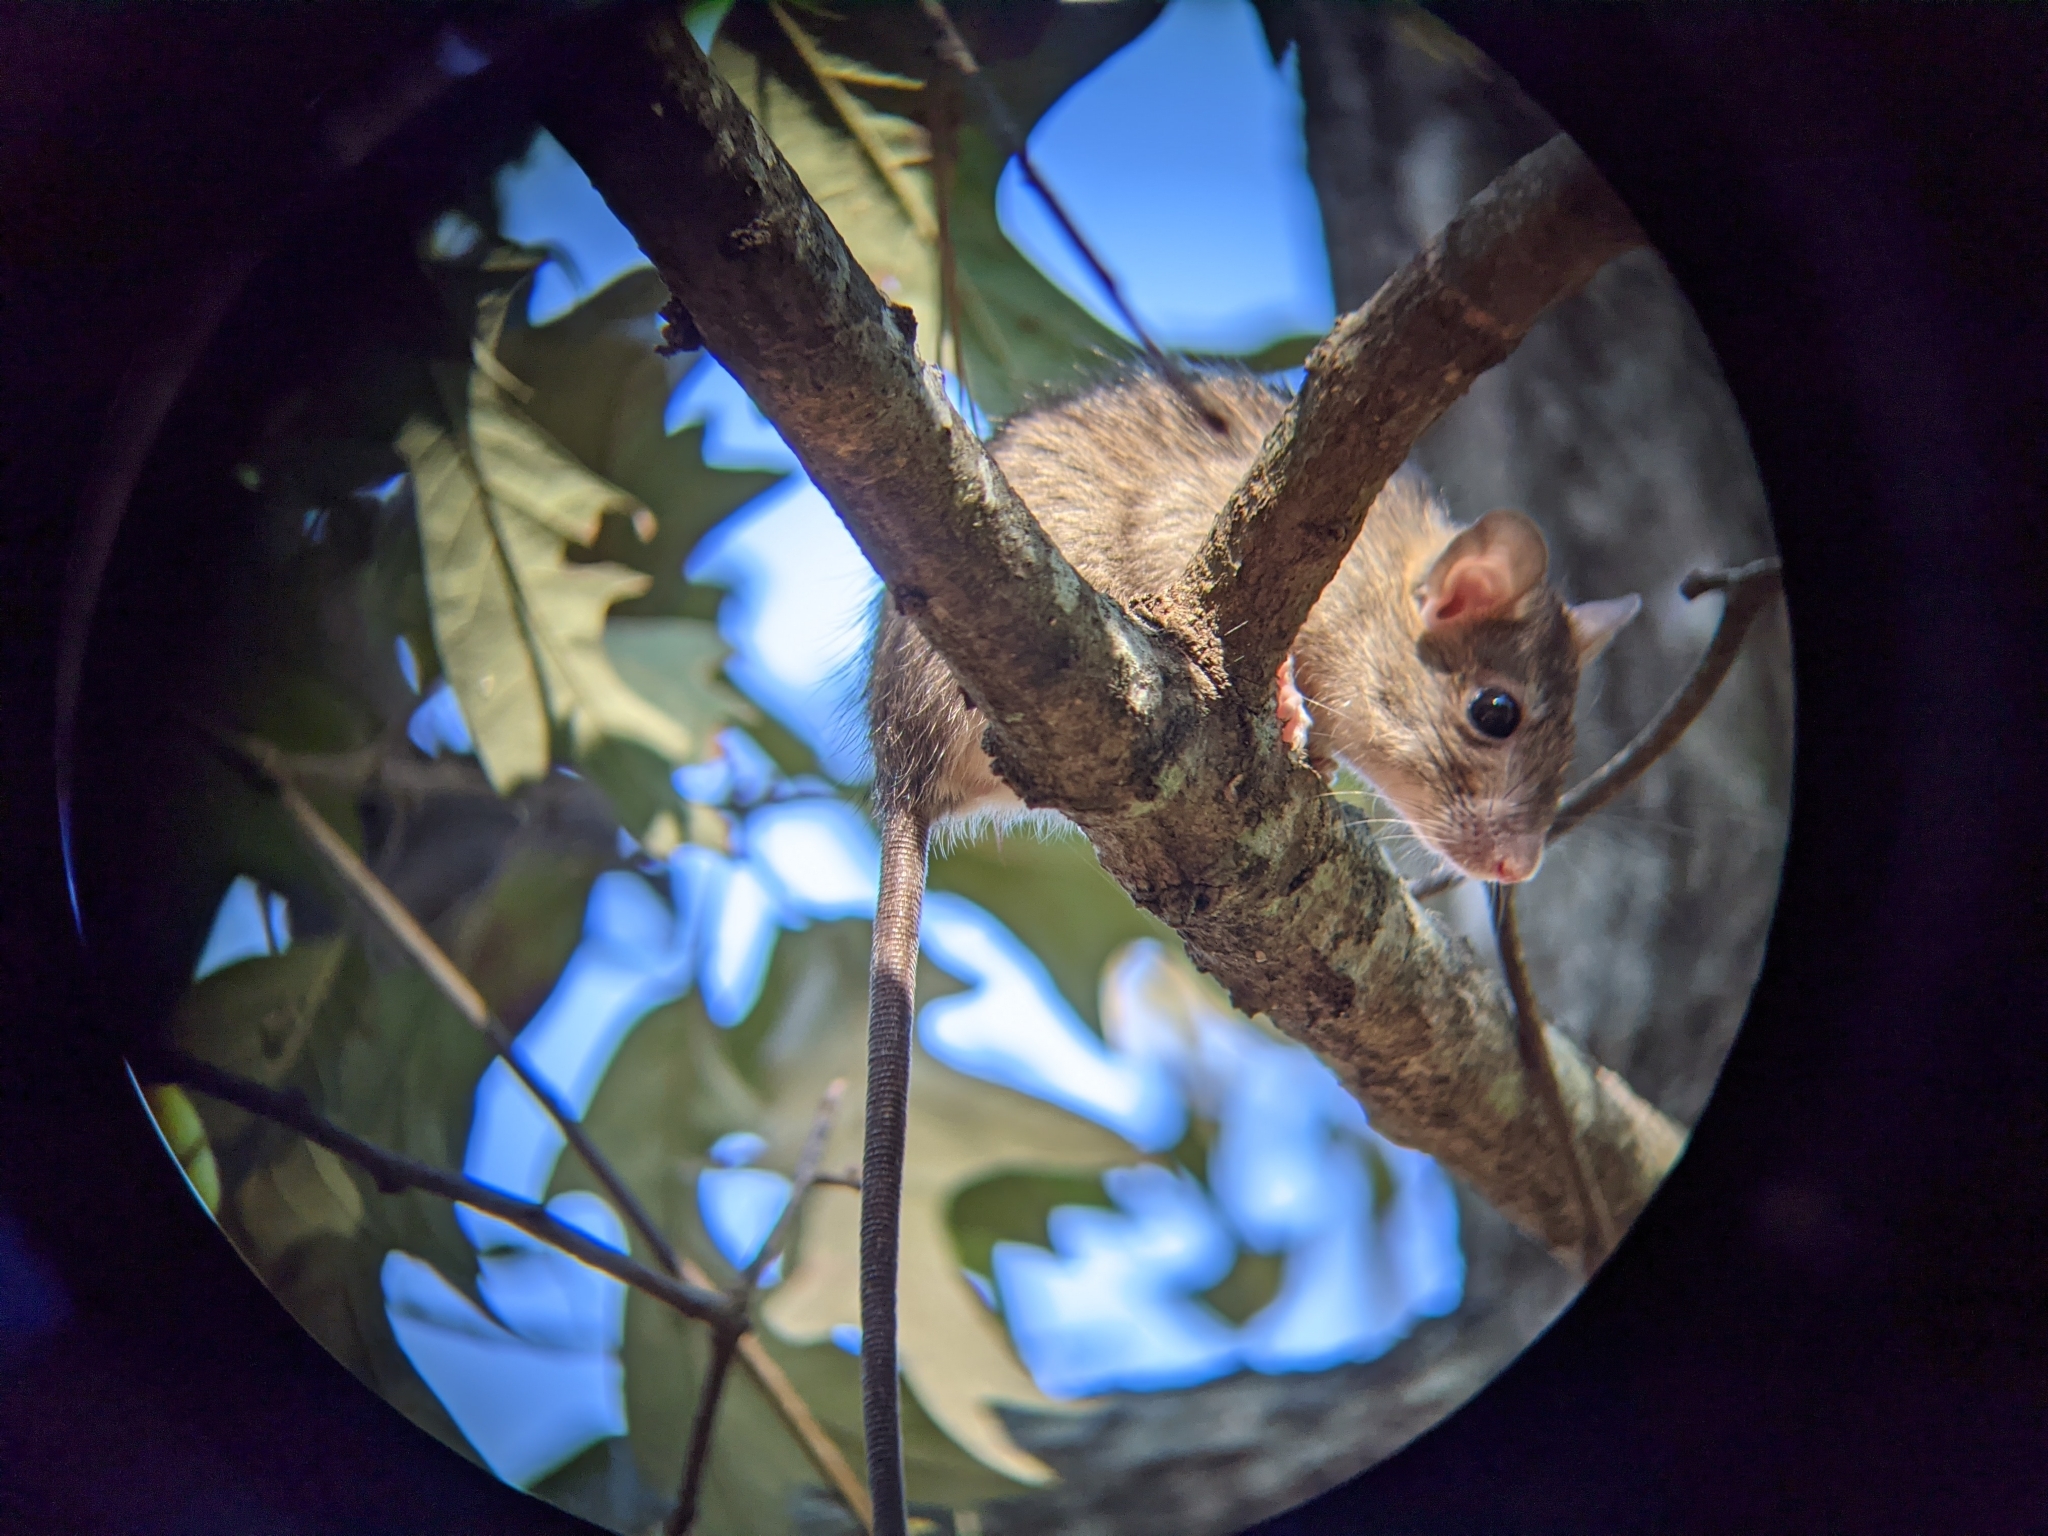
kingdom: Animalia
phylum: Chordata
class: Mammalia
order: Rodentia
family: Muridae
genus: Rattus
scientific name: Rattus rattus
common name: Black rat
